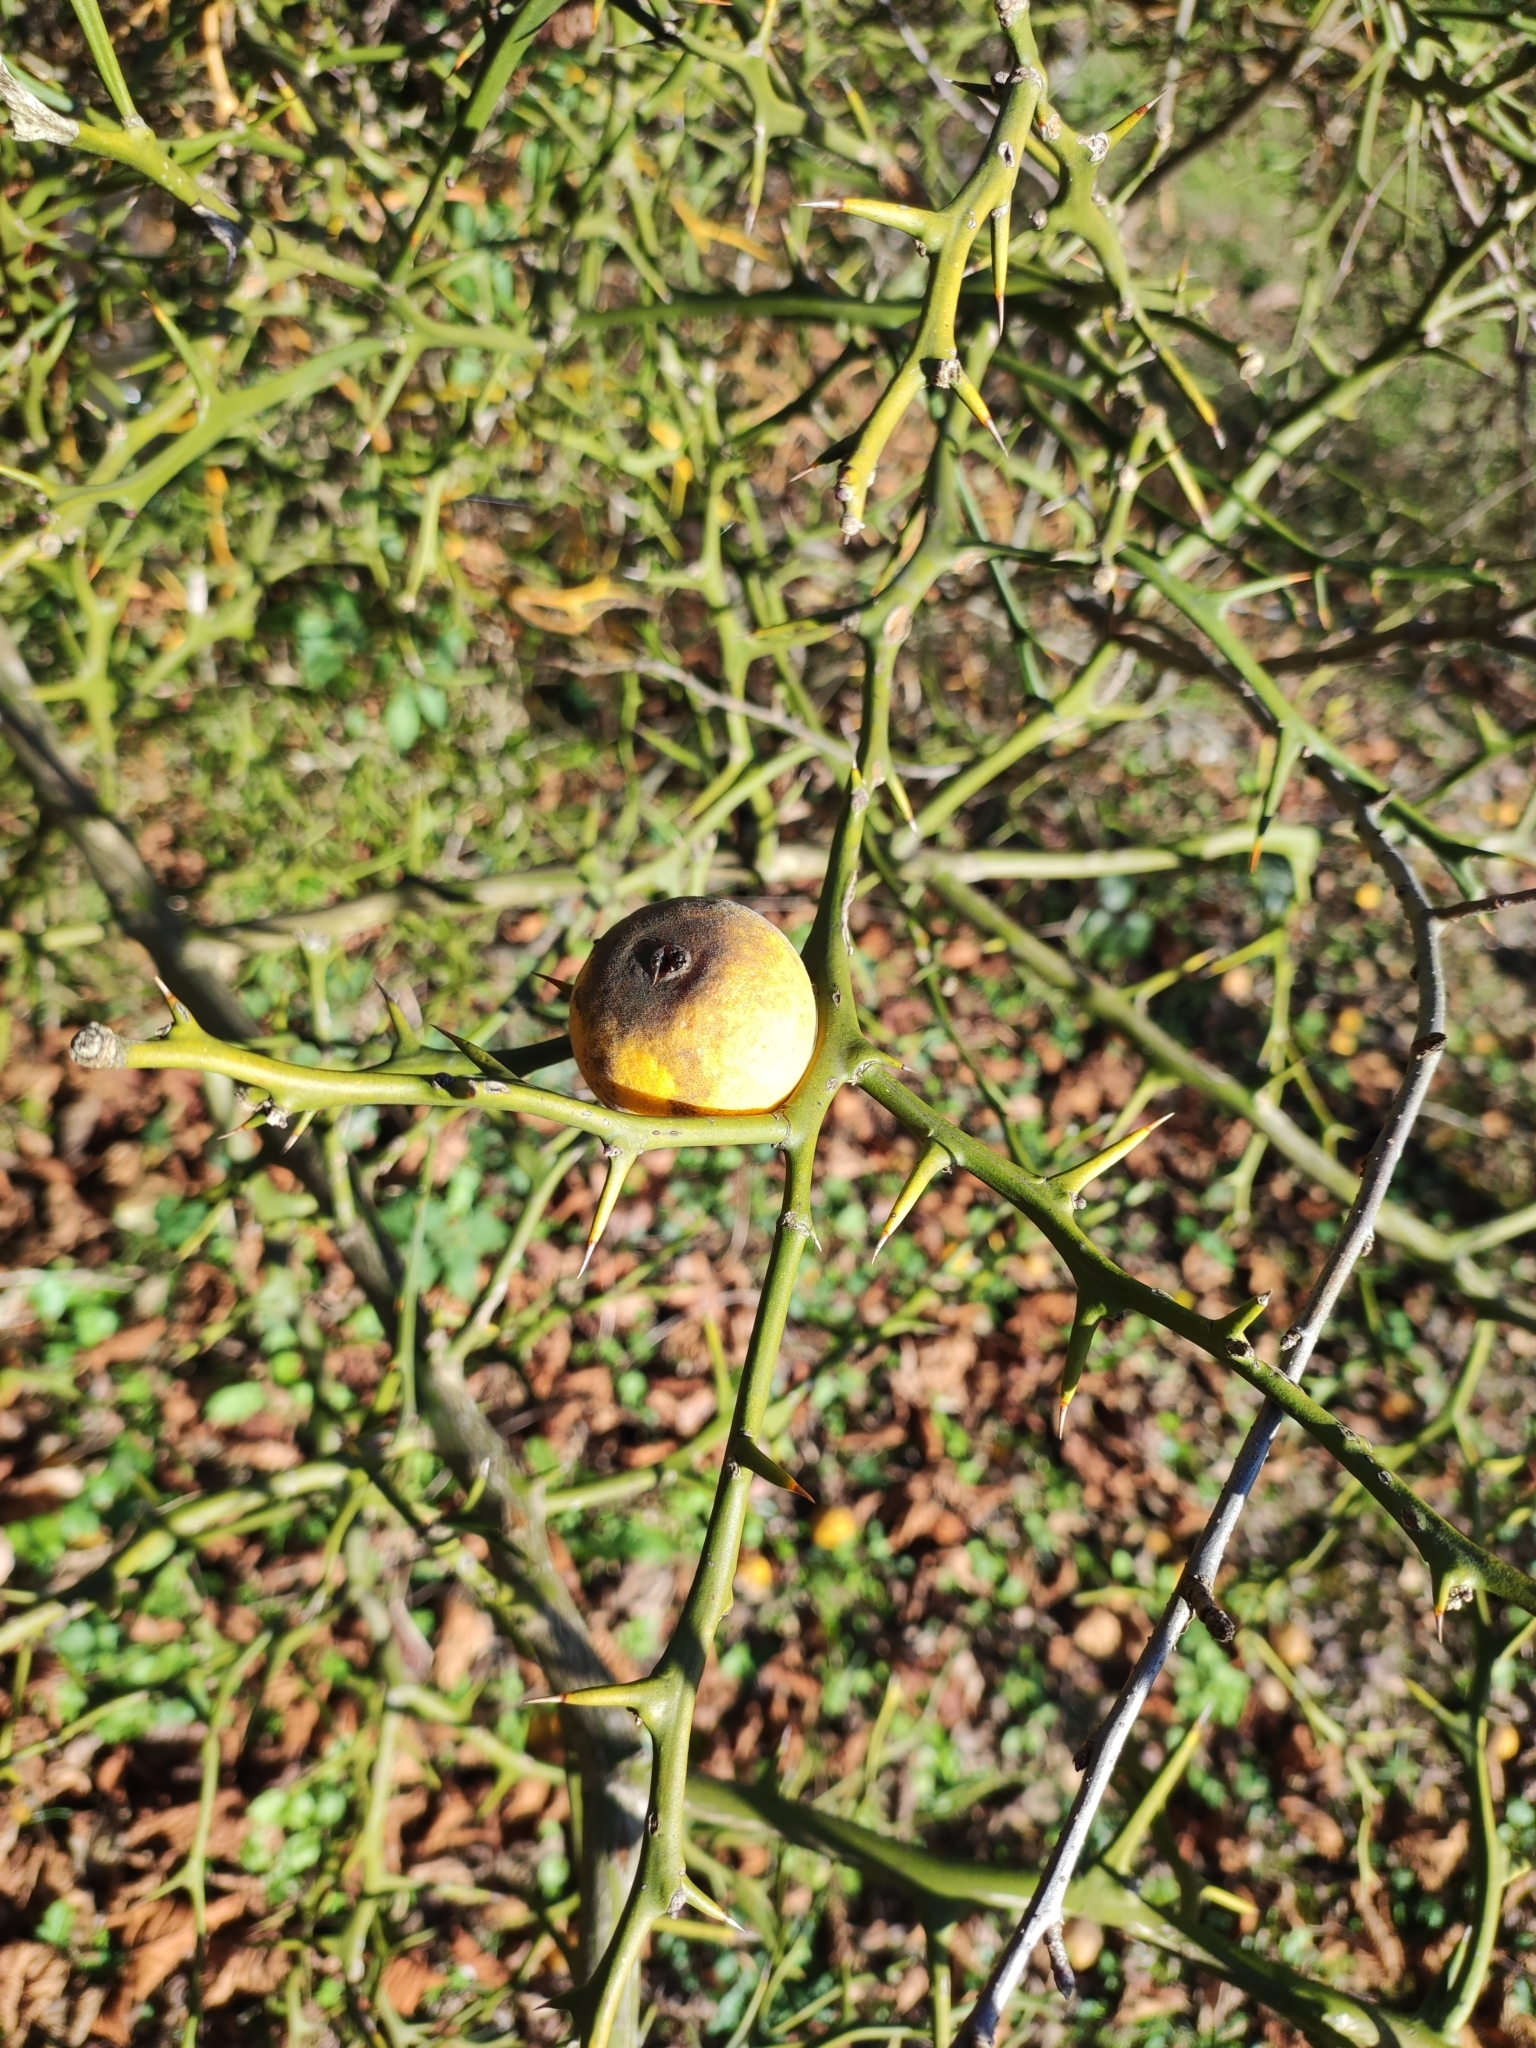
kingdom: Plantae
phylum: Tracheophyta
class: Magnoliopsida
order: Sapindales
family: Rutaceae
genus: Citrus
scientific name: Citrus trifoliata
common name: Japanese bitter-orange
